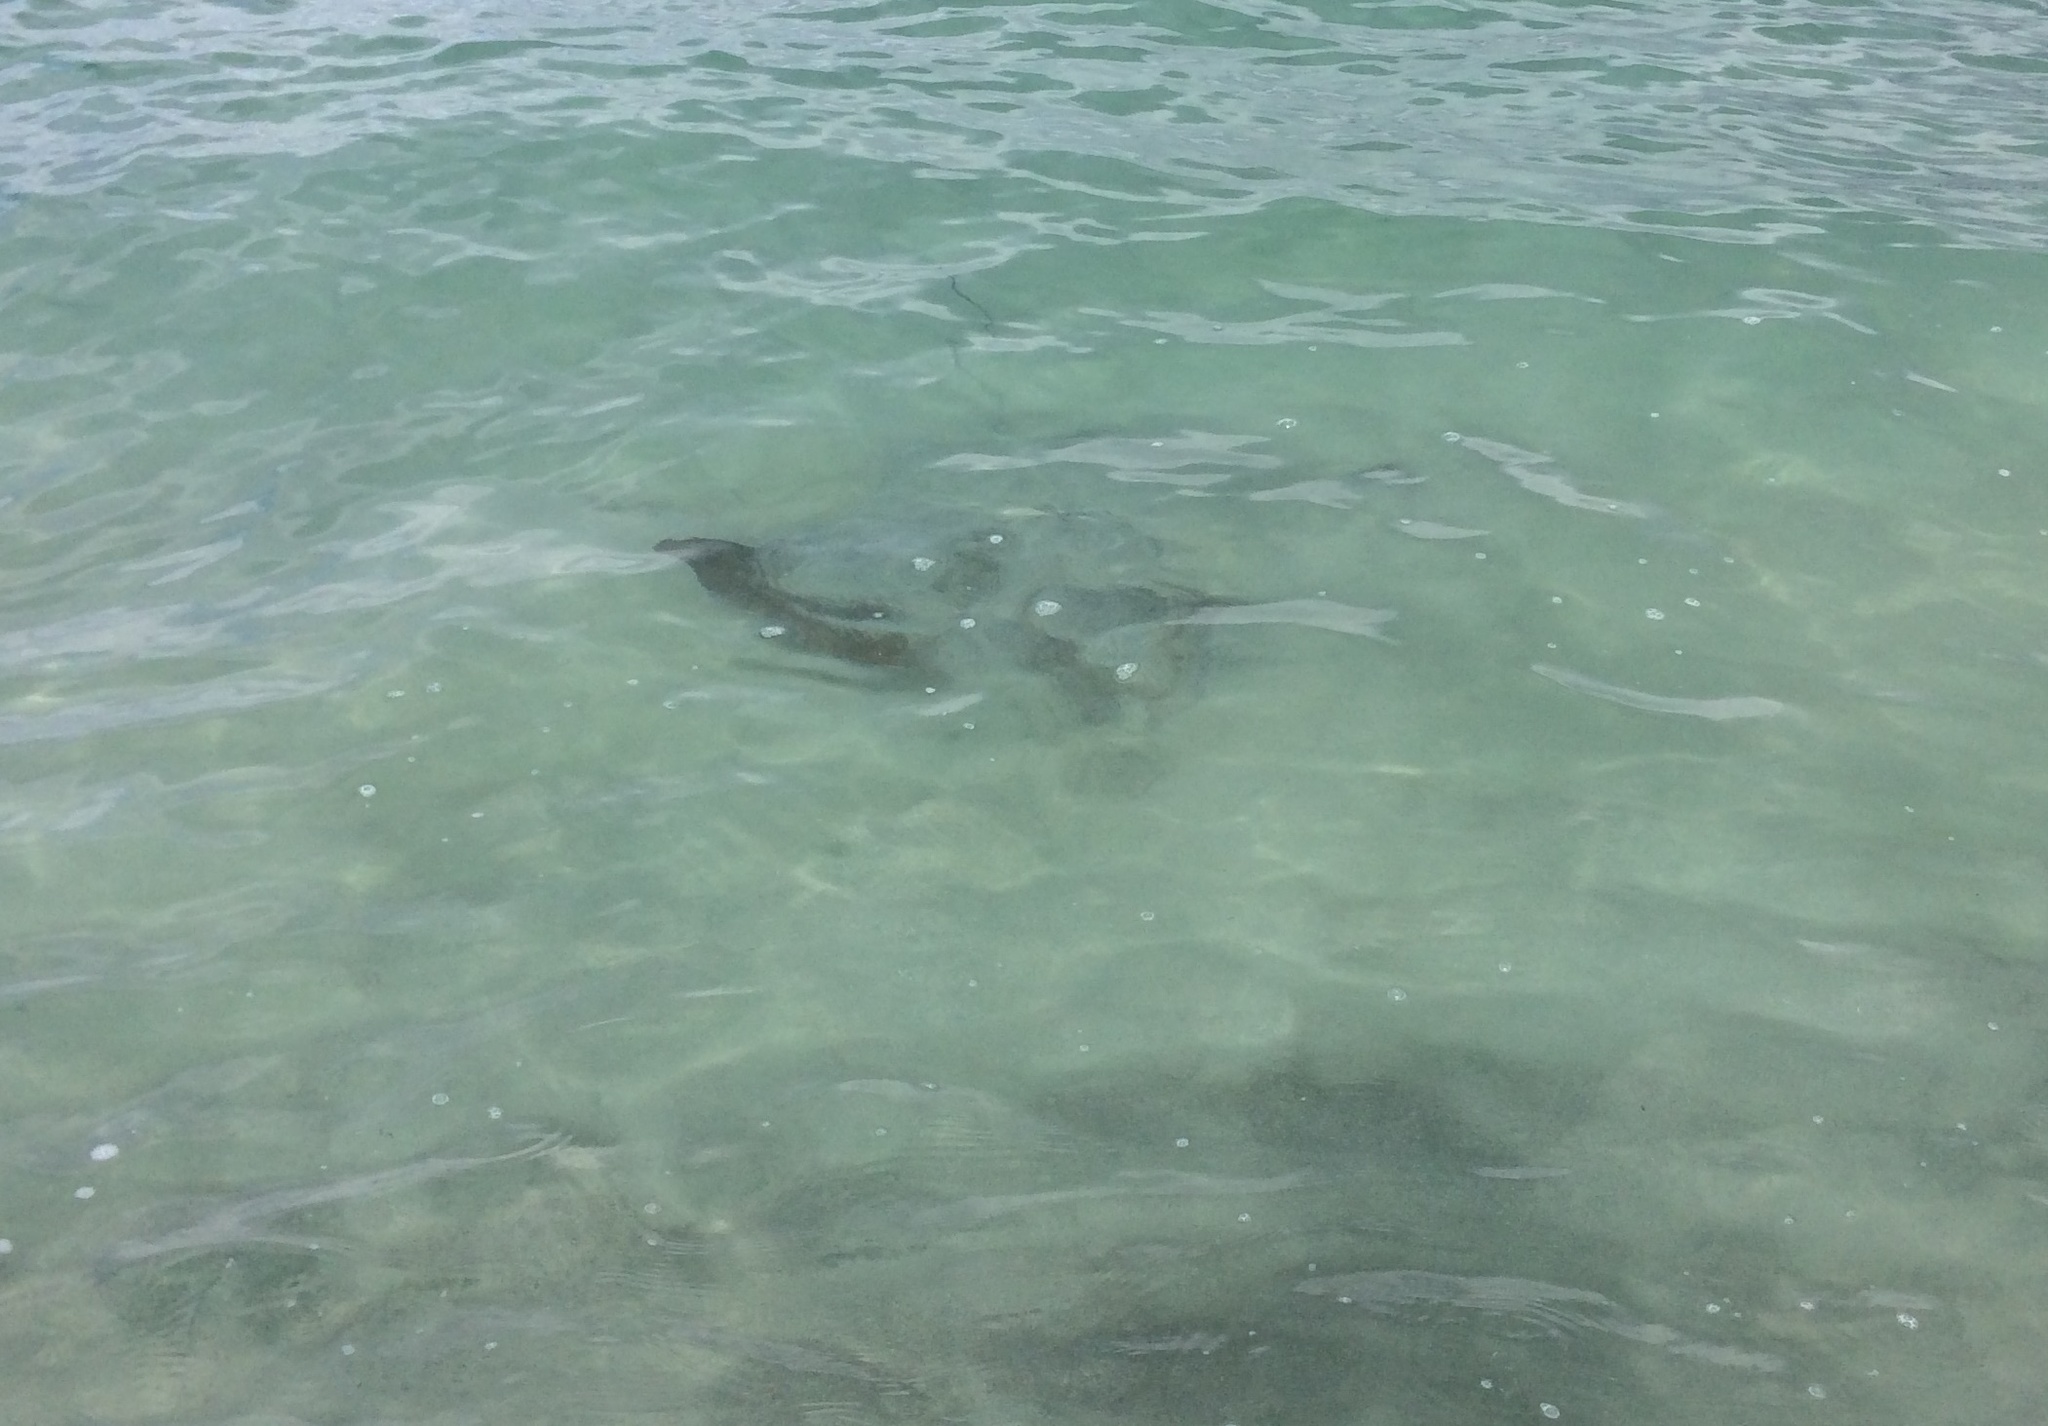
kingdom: Animalia
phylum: Chordata
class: Elasmobranchii
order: Myliobatiformes
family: Myliobatidae
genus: Myliobatis
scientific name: Myliobatis tenuicaudatus
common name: Eagle ray
